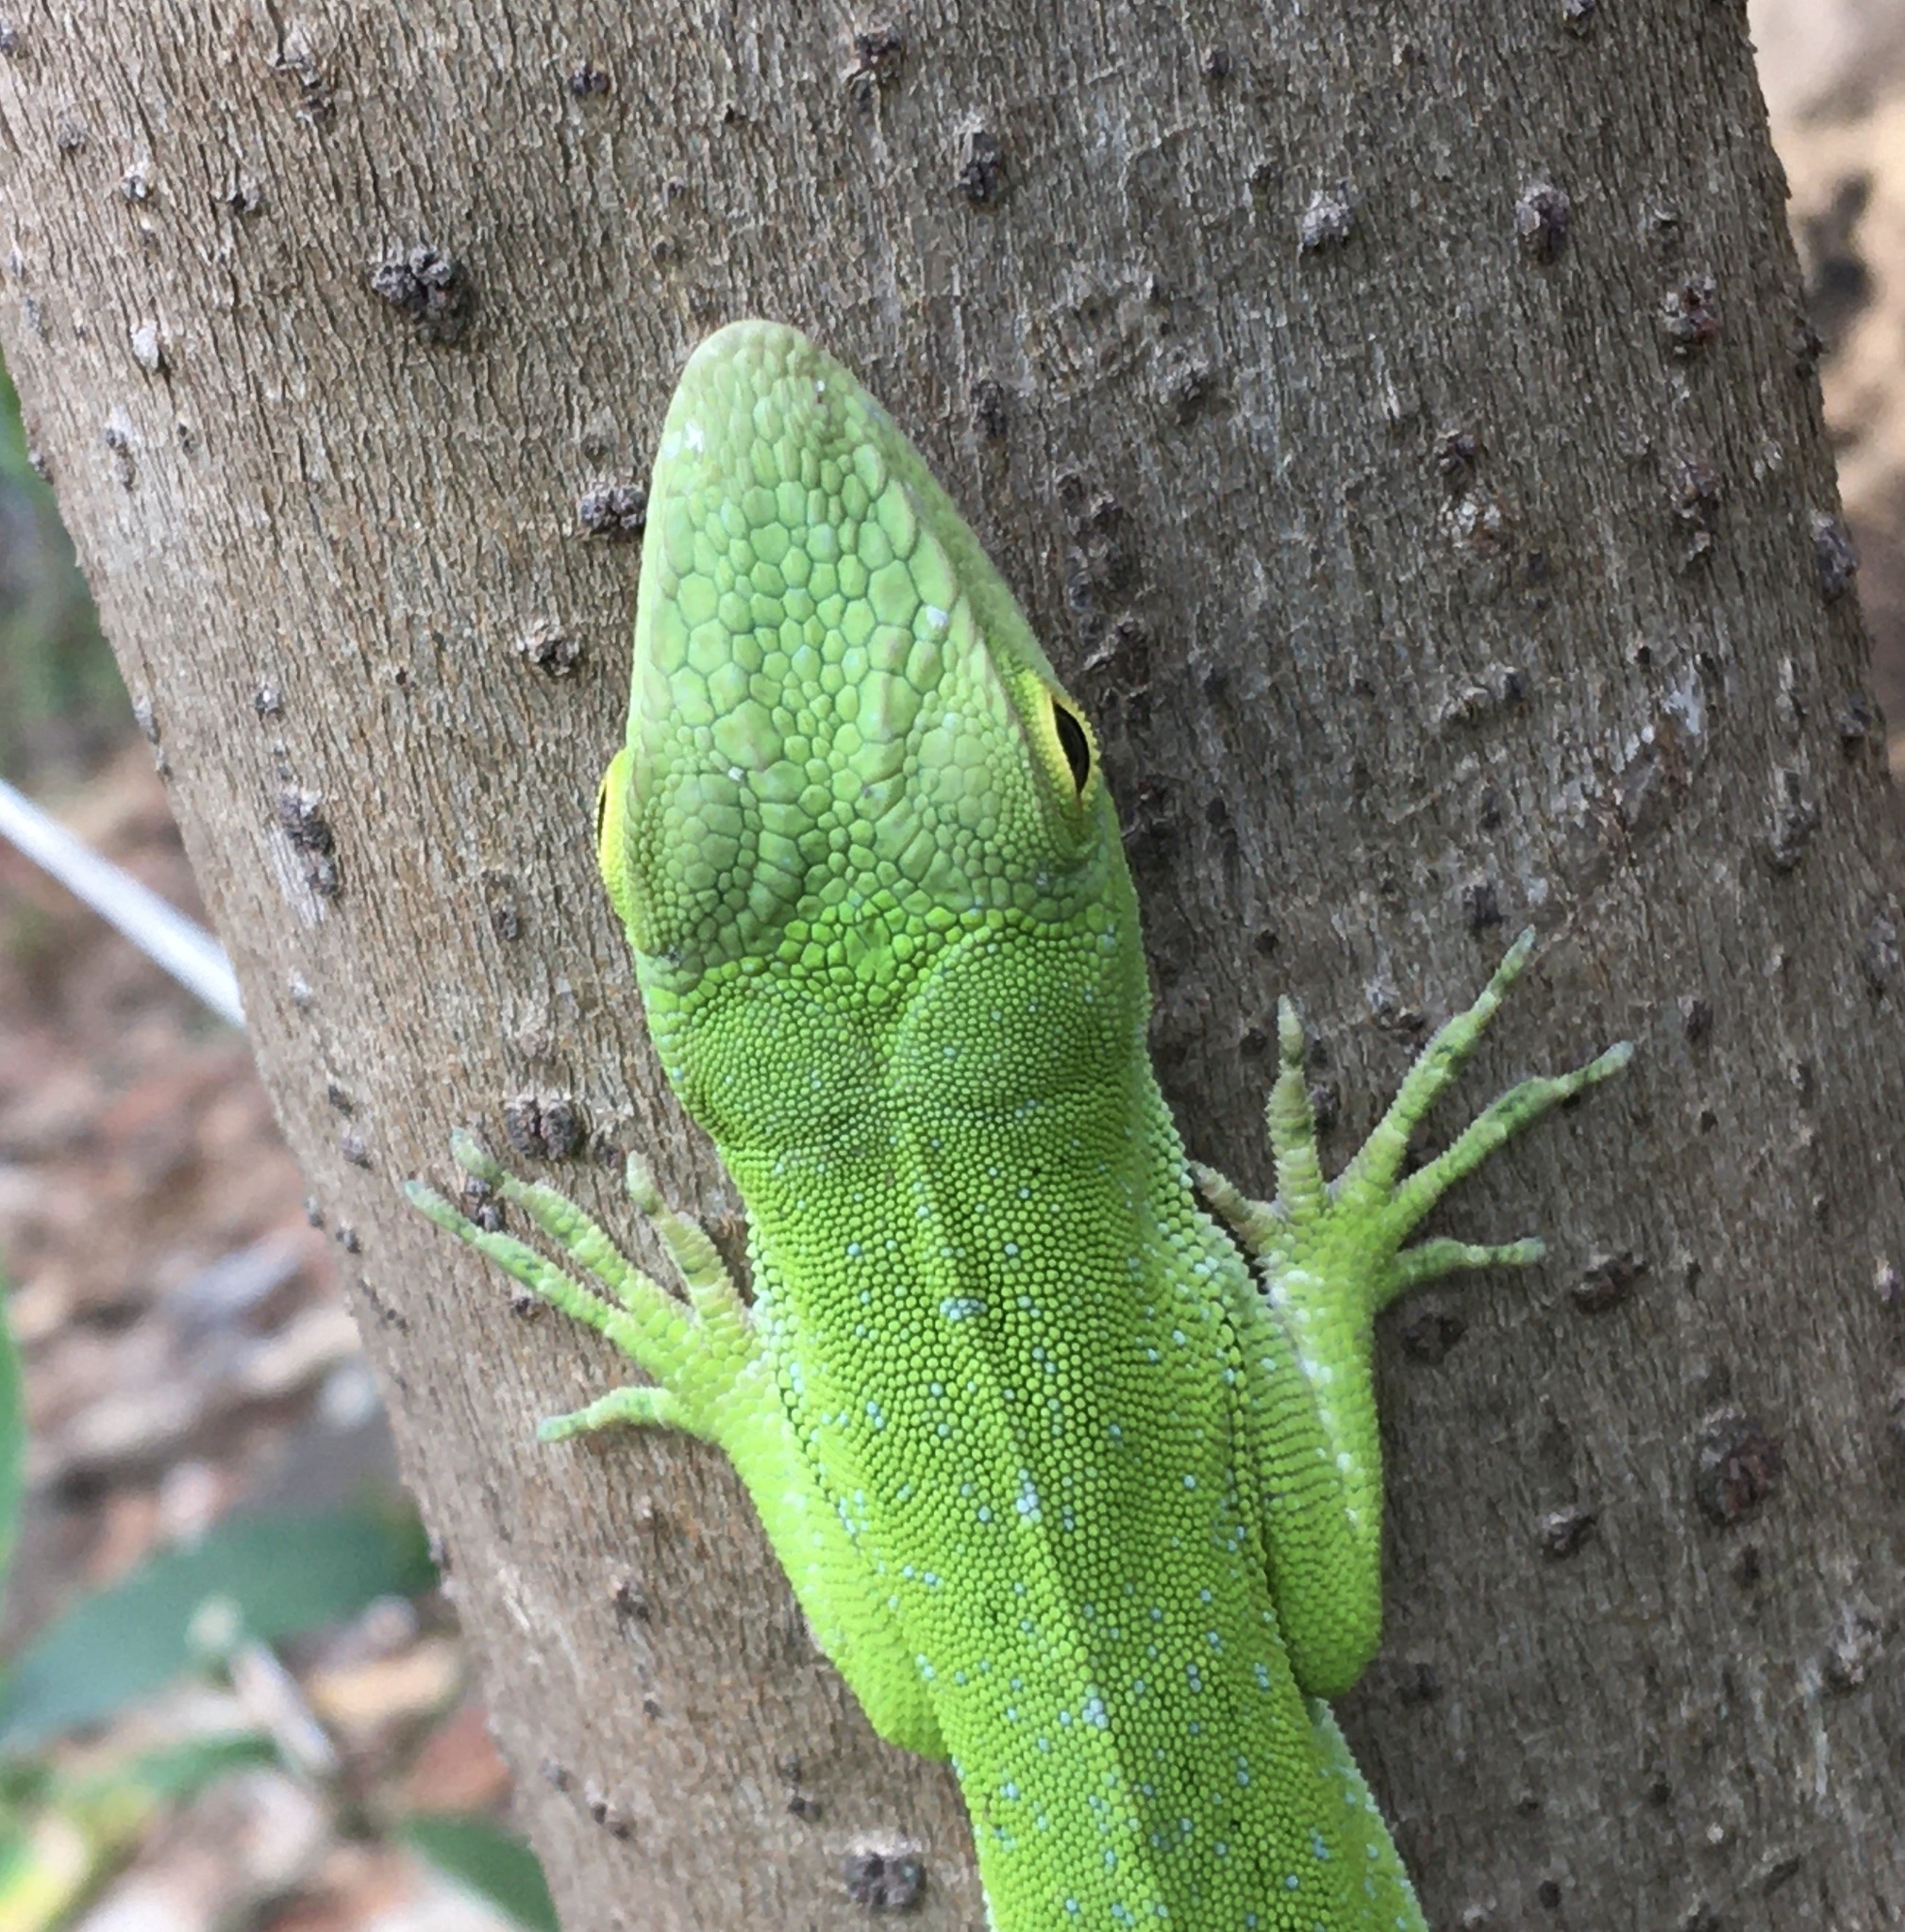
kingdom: Animalia
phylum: Chordata
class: Squamata
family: Dactyloidae
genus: Anolis
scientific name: Anolis biporcatus
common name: Giant green anole
